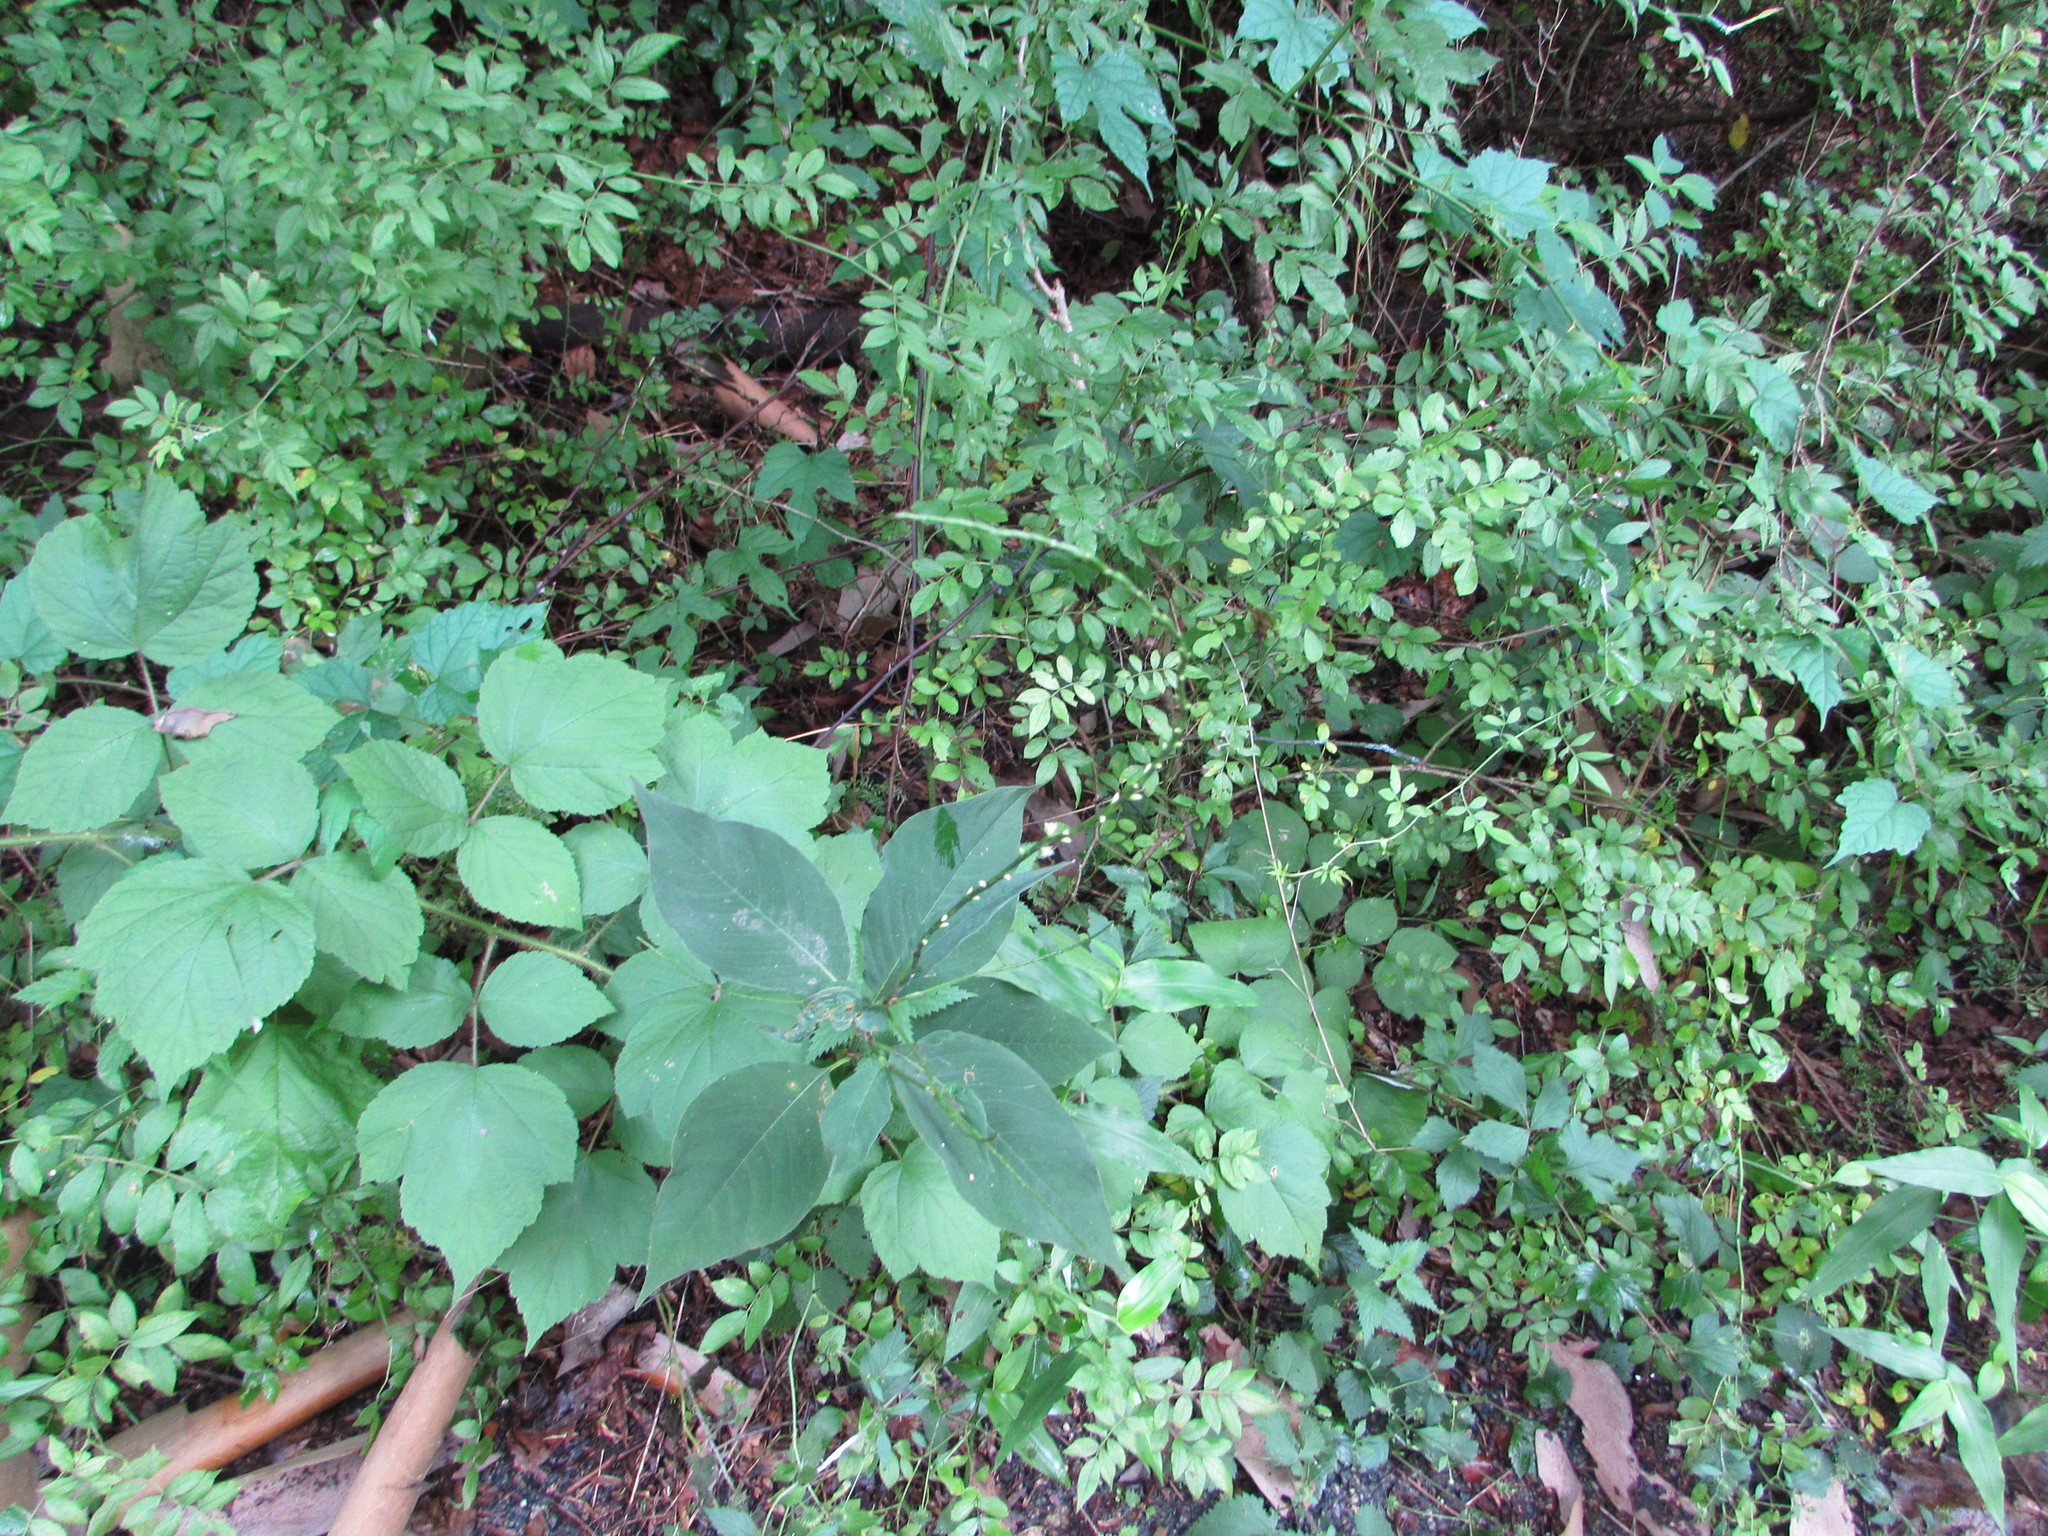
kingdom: Plantae
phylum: Tracheophyta
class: Magnoliopsida
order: Caryophyllales
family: Polygonaceae
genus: Persicaria
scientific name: Persicaria virginiana
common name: Jumpseed
